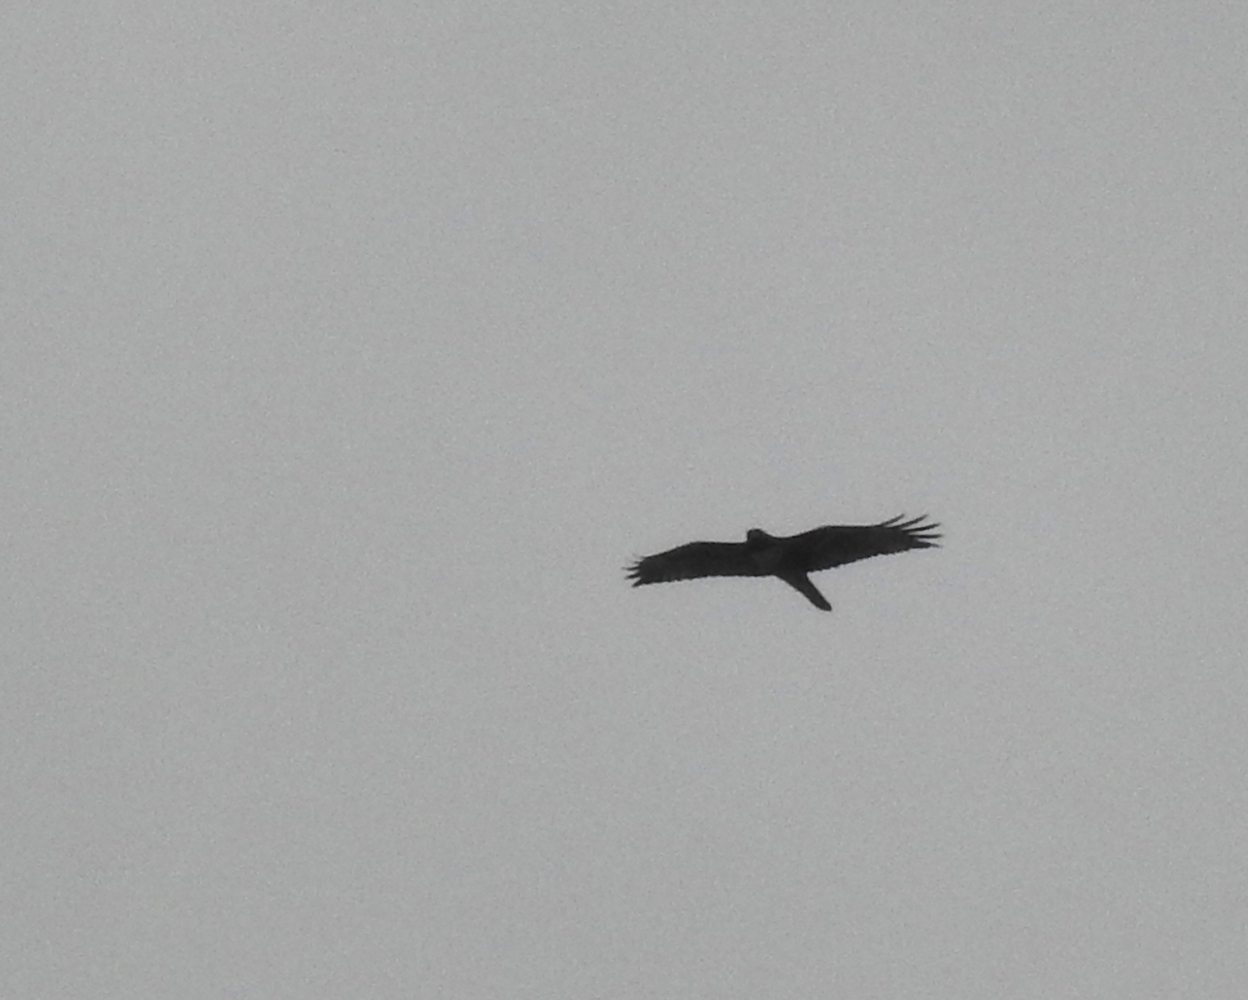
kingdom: Animalia
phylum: Chordata
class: Aves
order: Accipitriformes
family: Accipitridae
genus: Buteo
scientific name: Buteo jamaicensis
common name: Red-tailed hawk
